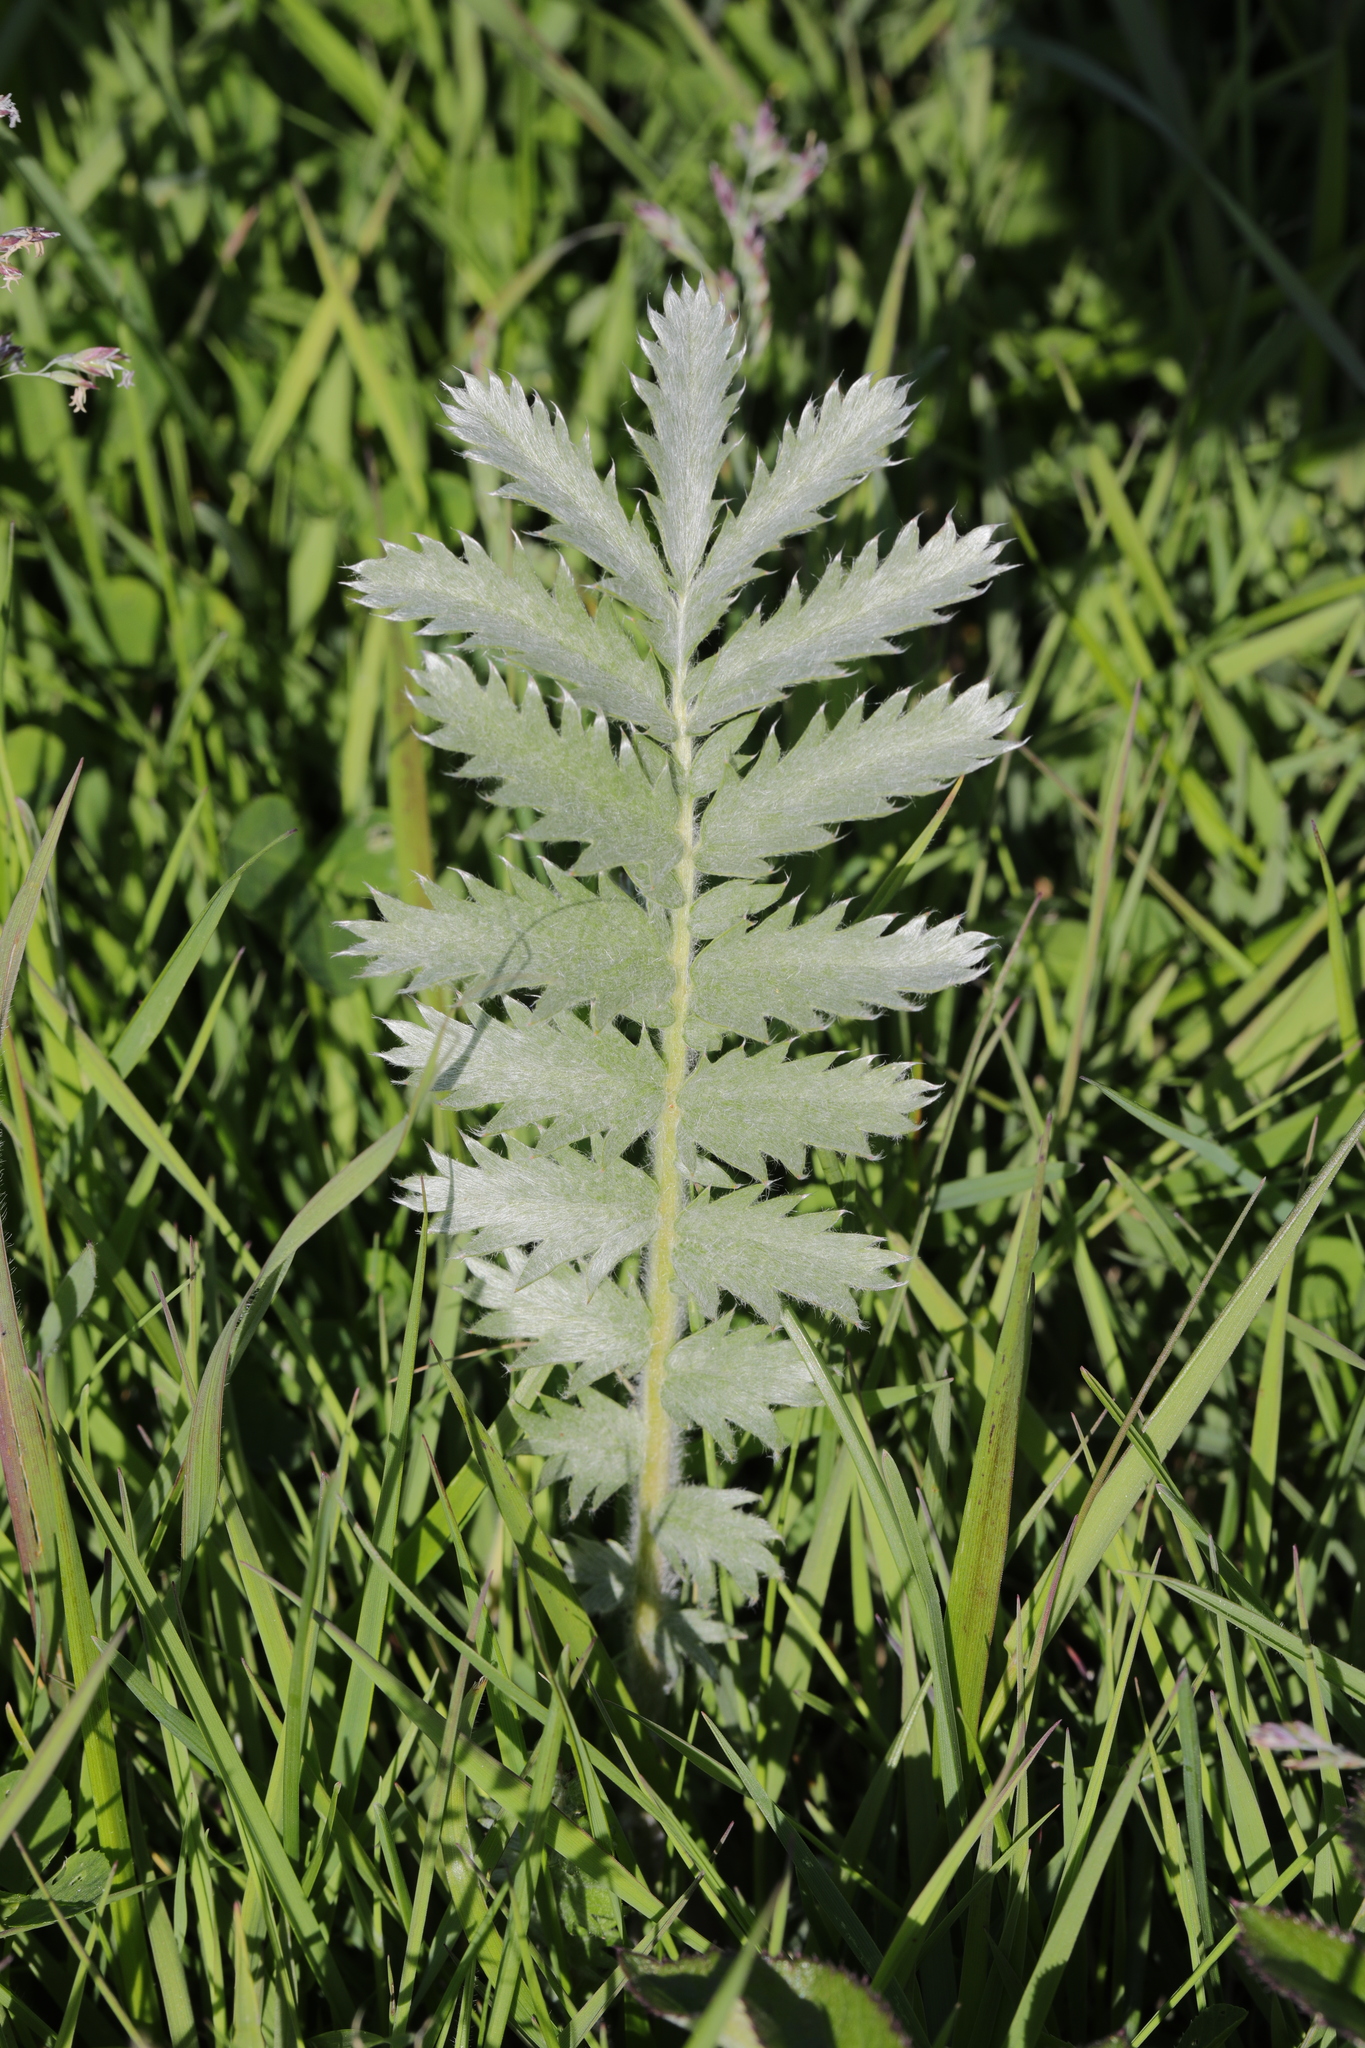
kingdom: Plantae
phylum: Tracheophyta
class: Magnoliopsida
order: Rosales
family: Rosaceae
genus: Argentina
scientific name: Argentina anserina
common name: Common silverweed
